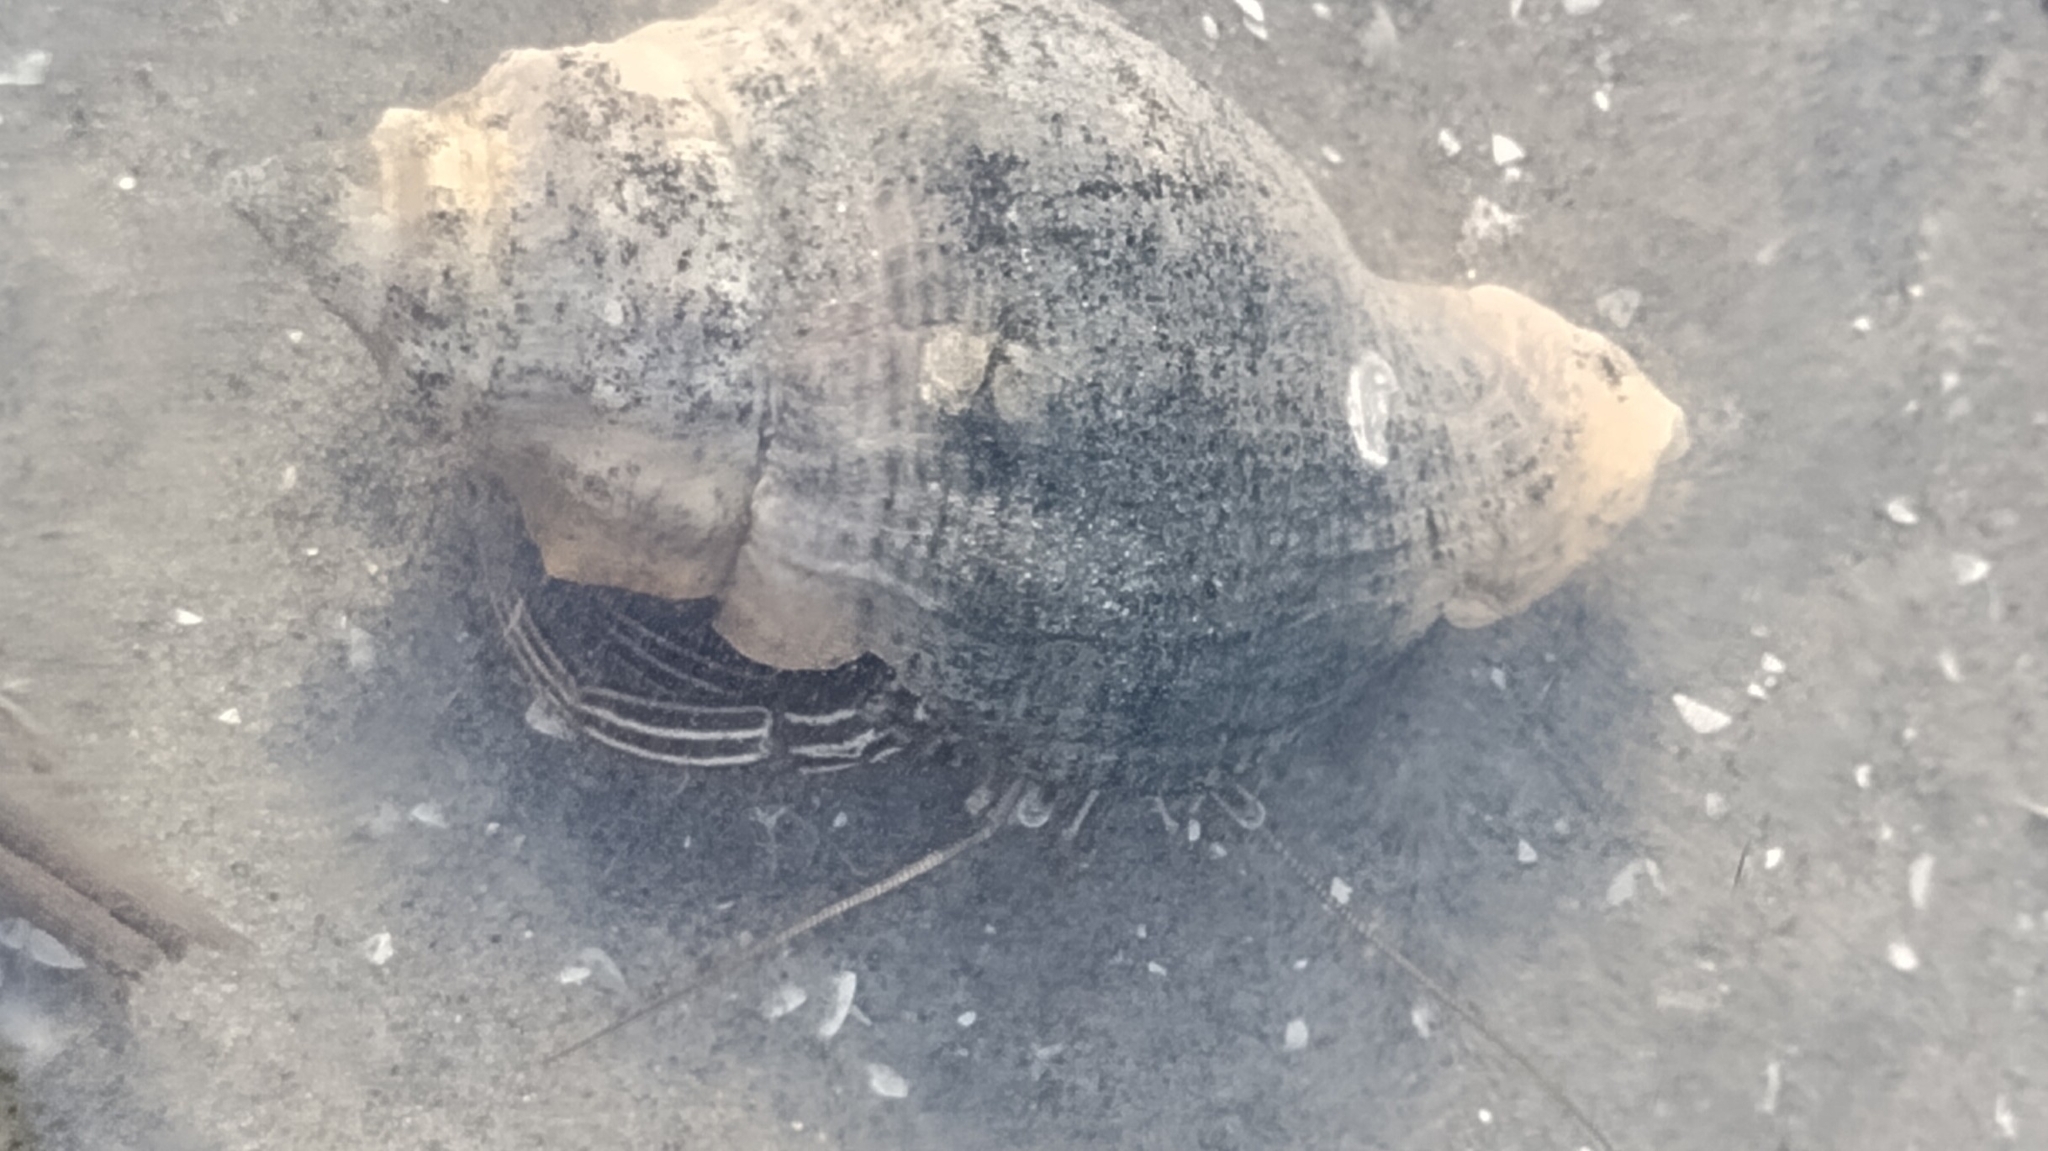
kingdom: Animalia
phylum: Arthropoda
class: Malacostraca
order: Decapoda
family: Diogenidae
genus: Clibanarius
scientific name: Clibanarius vittatus
